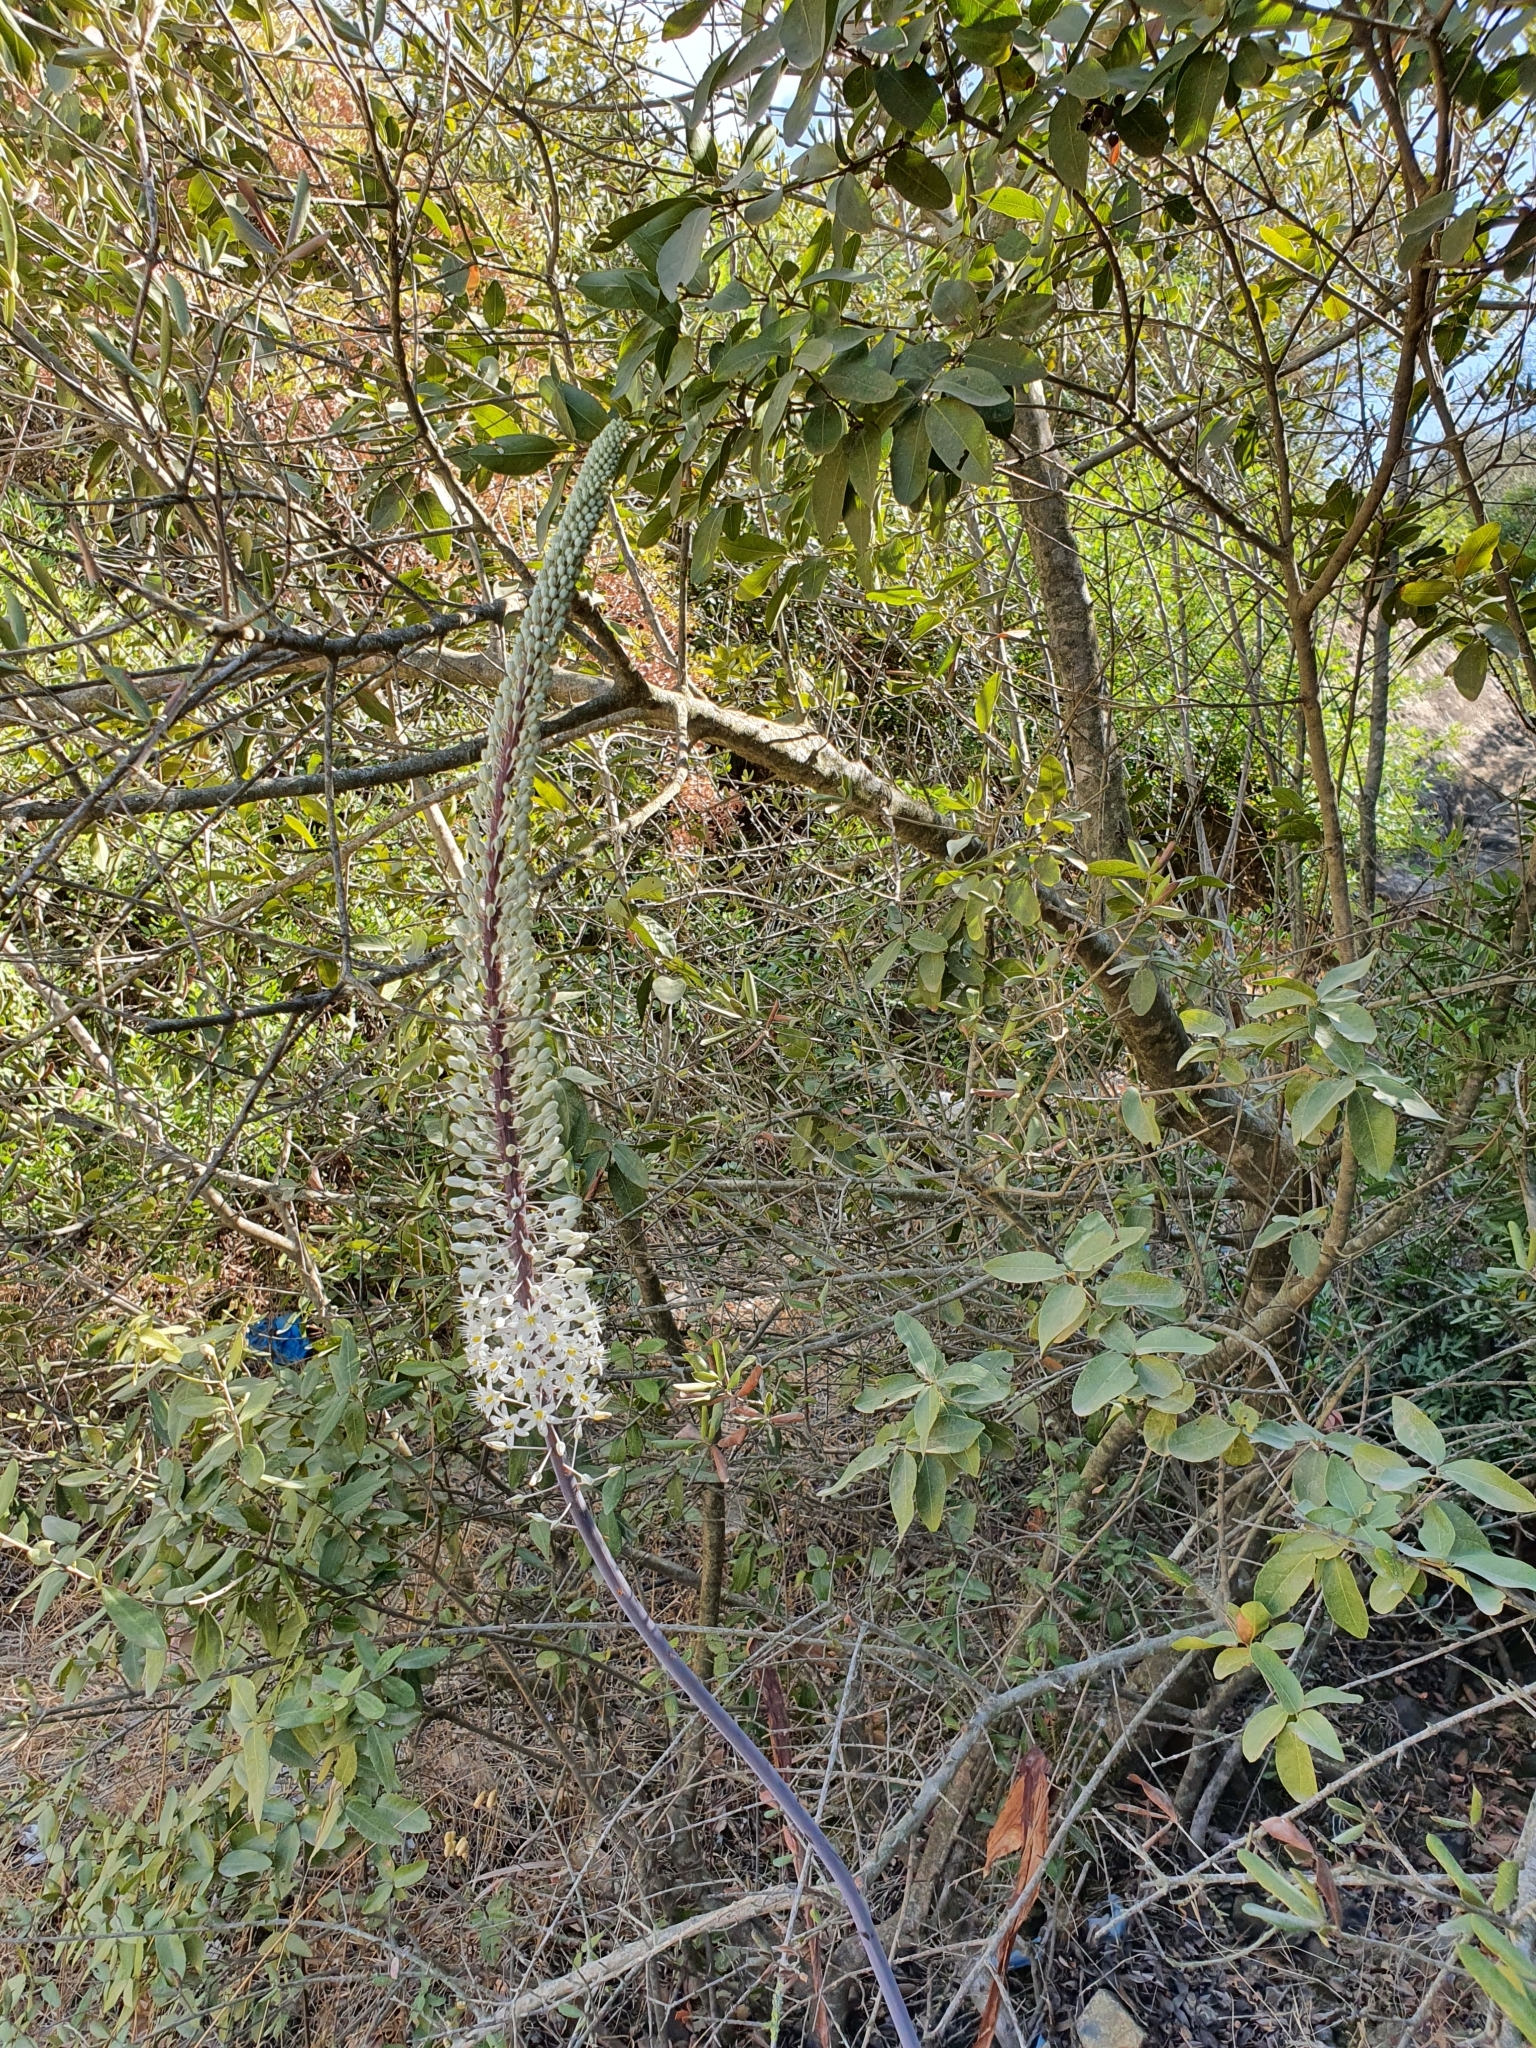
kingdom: Plantae
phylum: Tracheophyta
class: Liliopsida
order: Asparagales
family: Asparagaceae
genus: Drimia
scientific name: Drimia numidica
